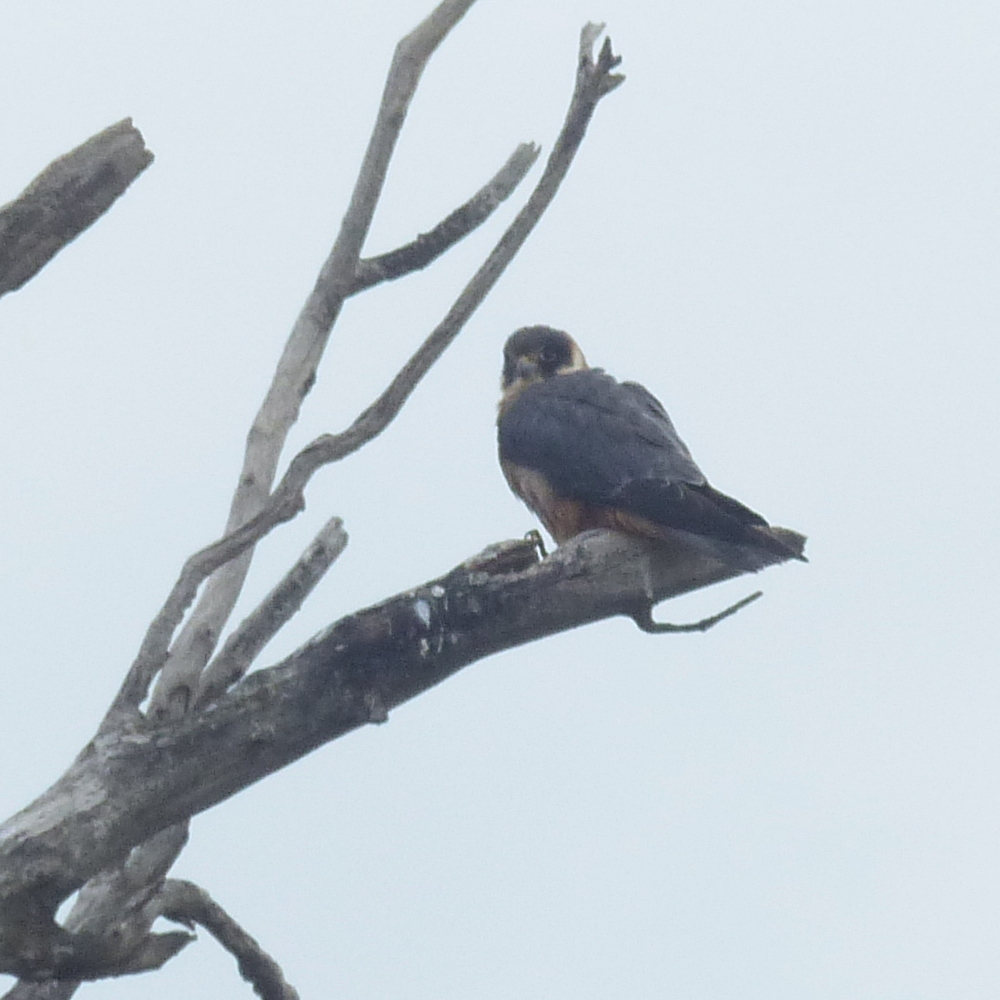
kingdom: Animalia
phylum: Chordata
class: Aves
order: Falconiformes
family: Falconidae
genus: Falco
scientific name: Falco longipennis
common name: Australian hobby
